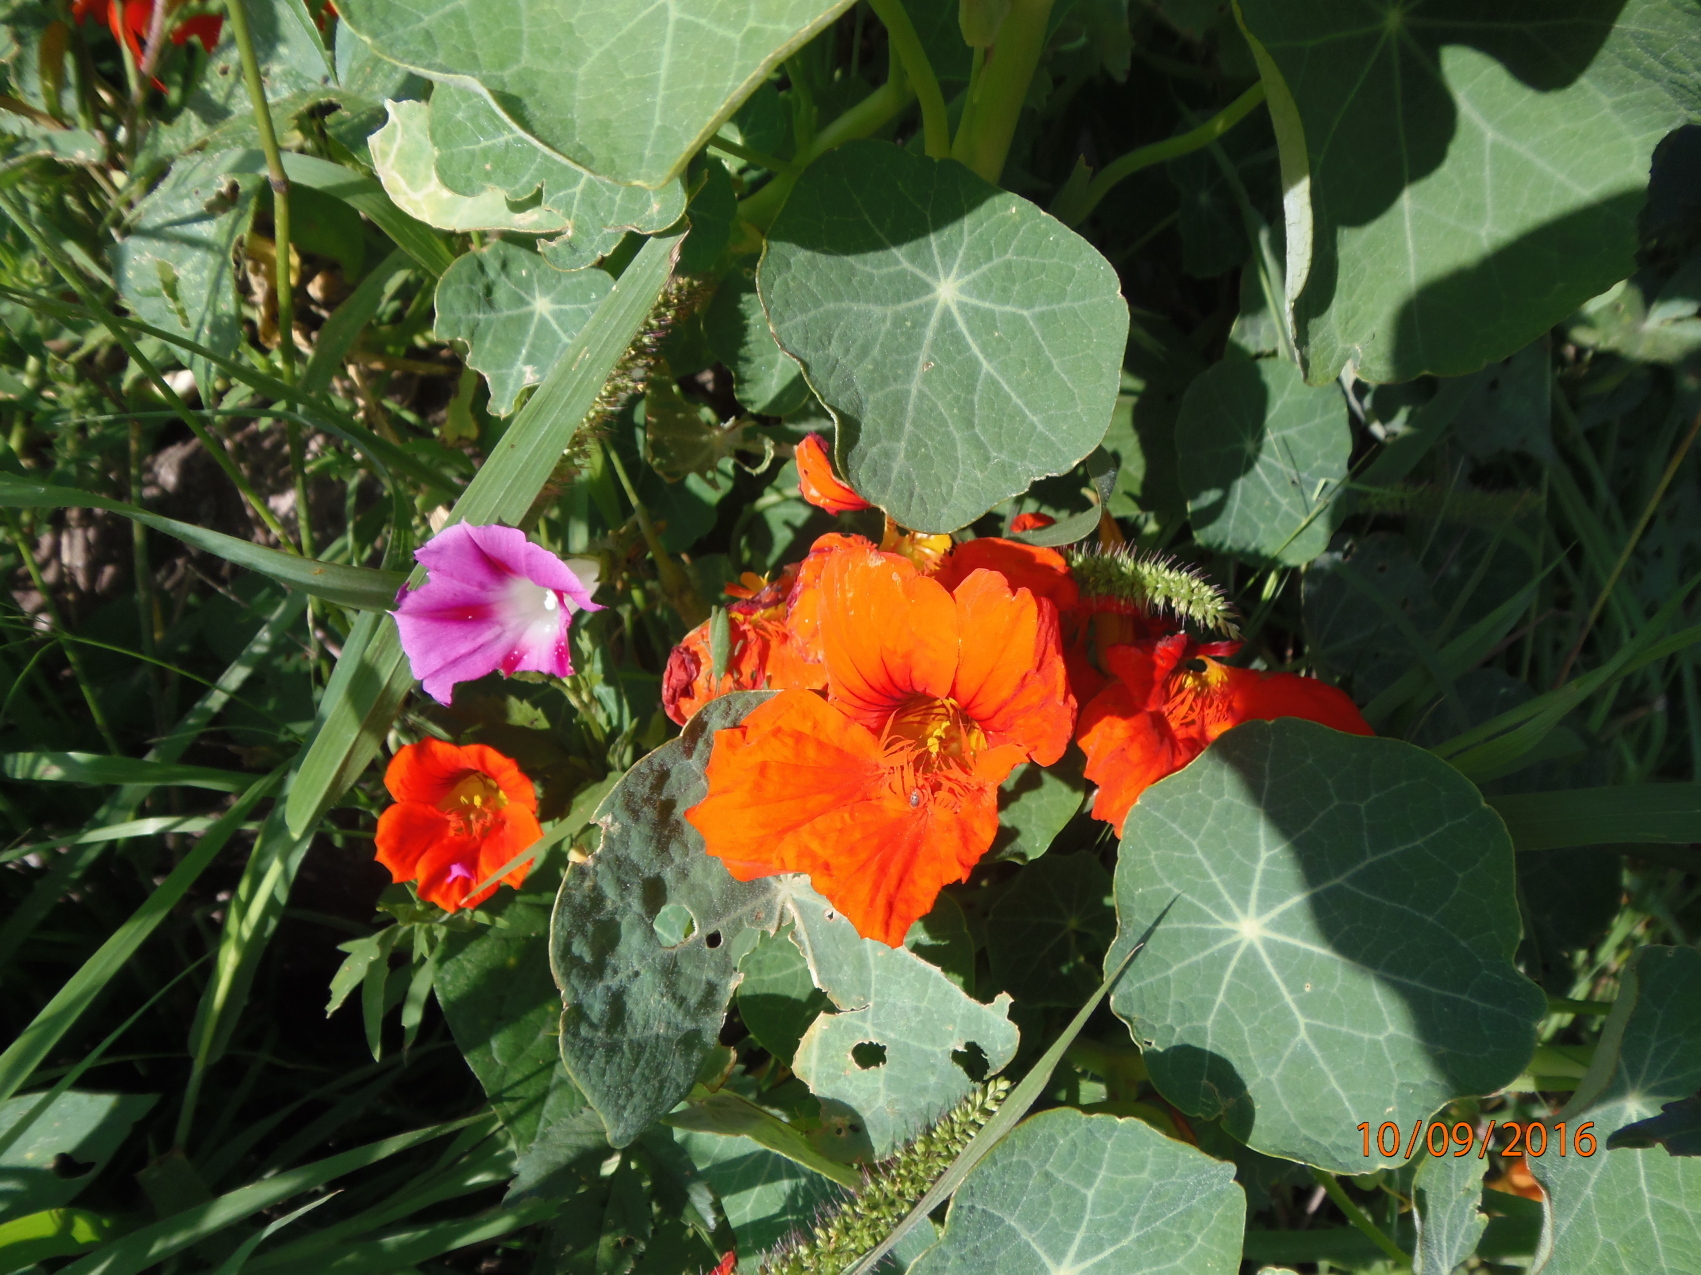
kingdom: Plantae
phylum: Tracheophyta
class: Magnoliopsida
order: Brassicales
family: Tropaeolaceae
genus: Tropaeolum
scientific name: Tropaeolum majus
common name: Nasturtium
